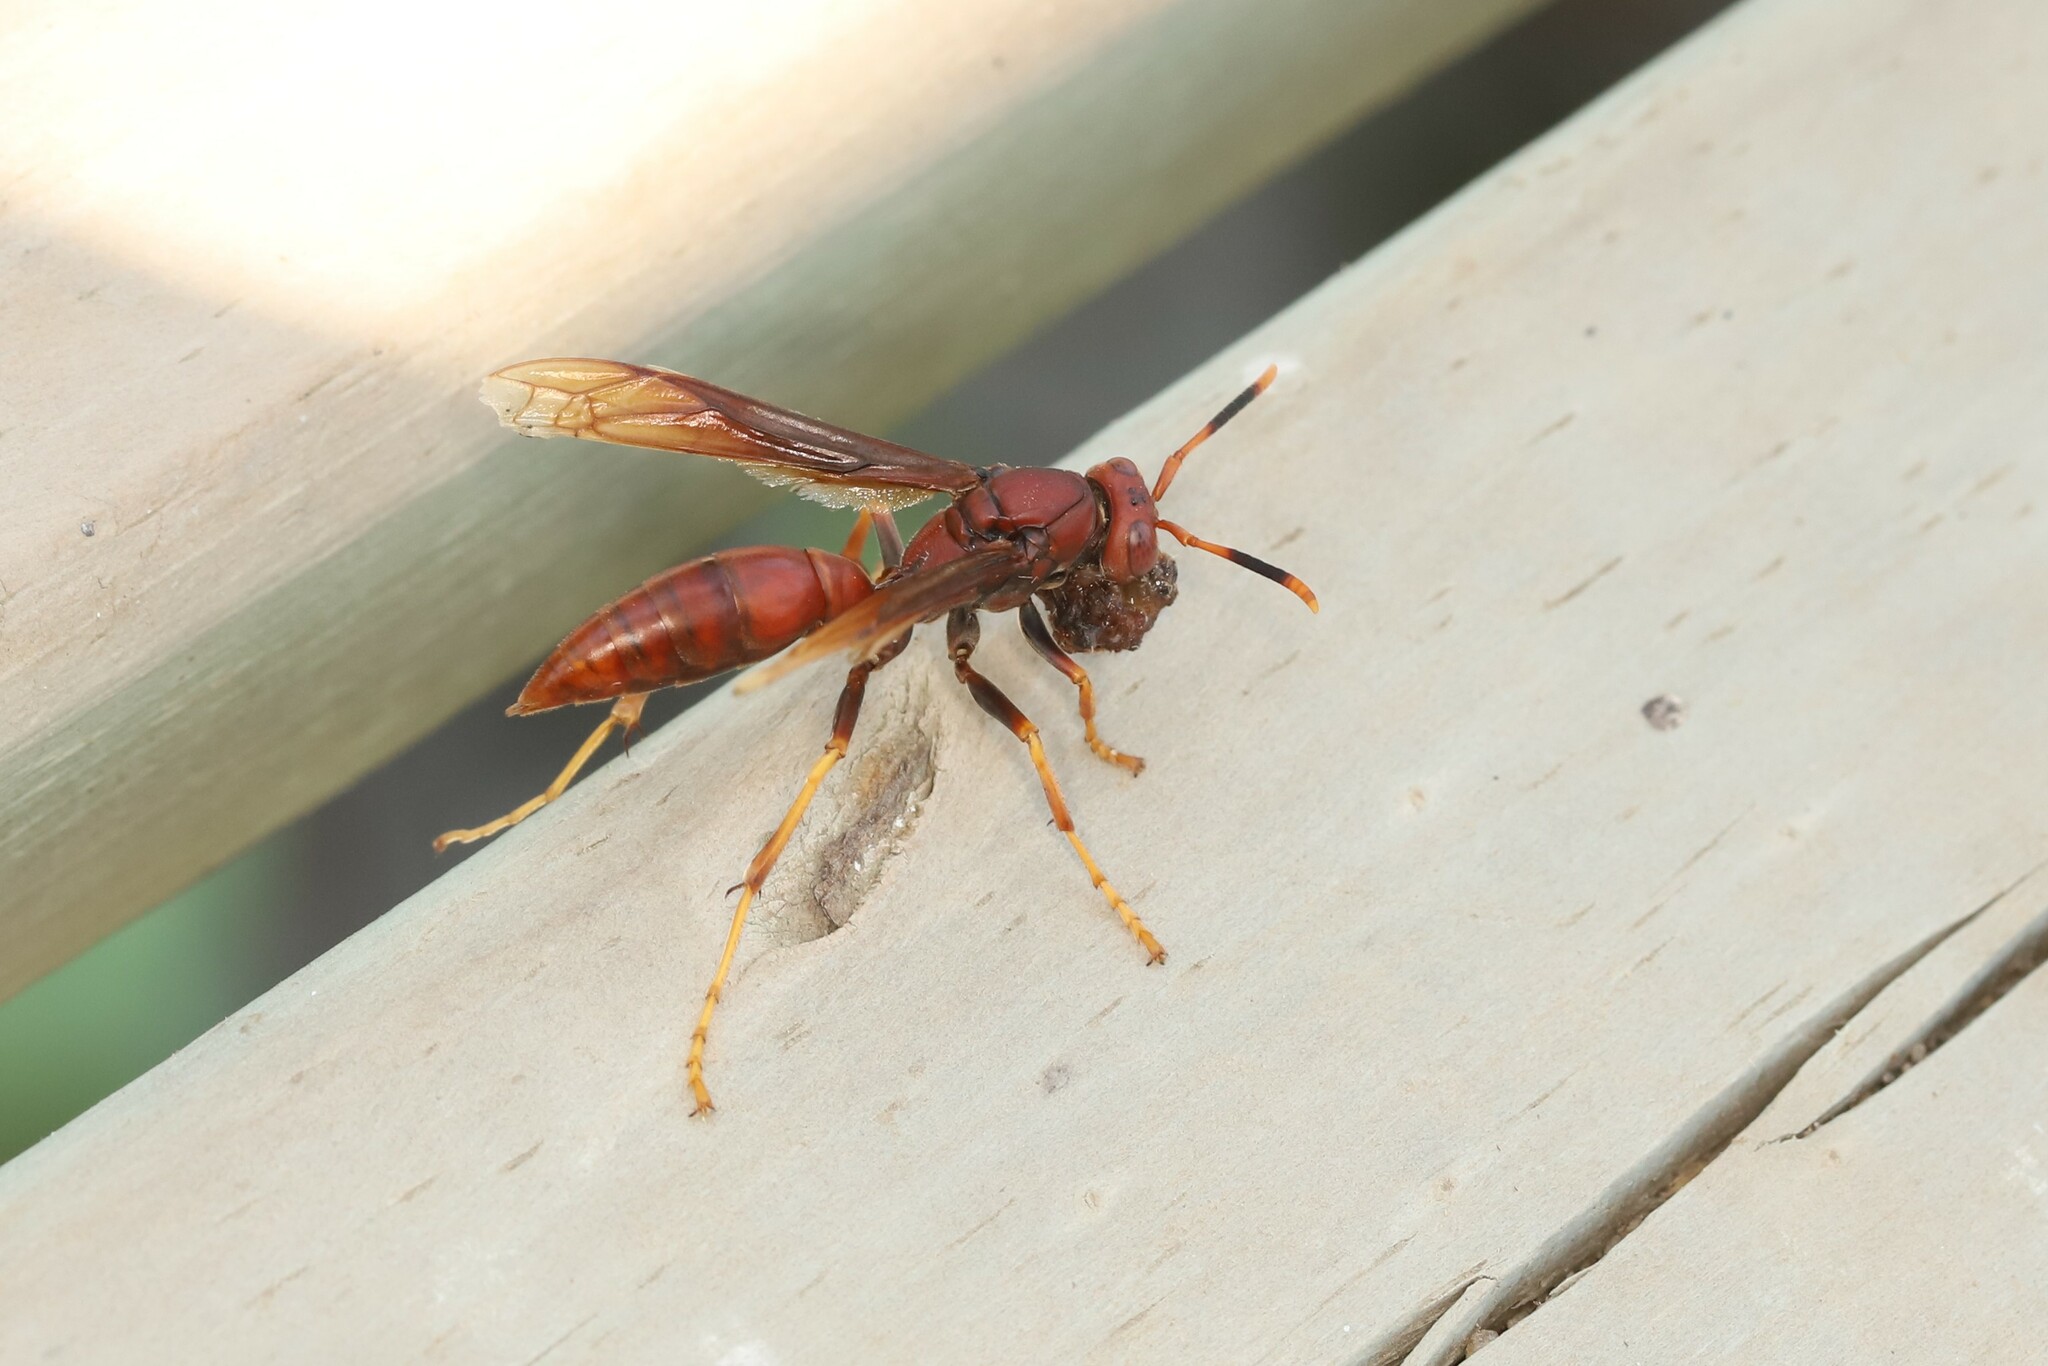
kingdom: Animalia
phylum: Arthropoda
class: Insecta
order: Hymenoptera
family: Eumenidae
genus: Polistes
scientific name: Polistes canadensis
